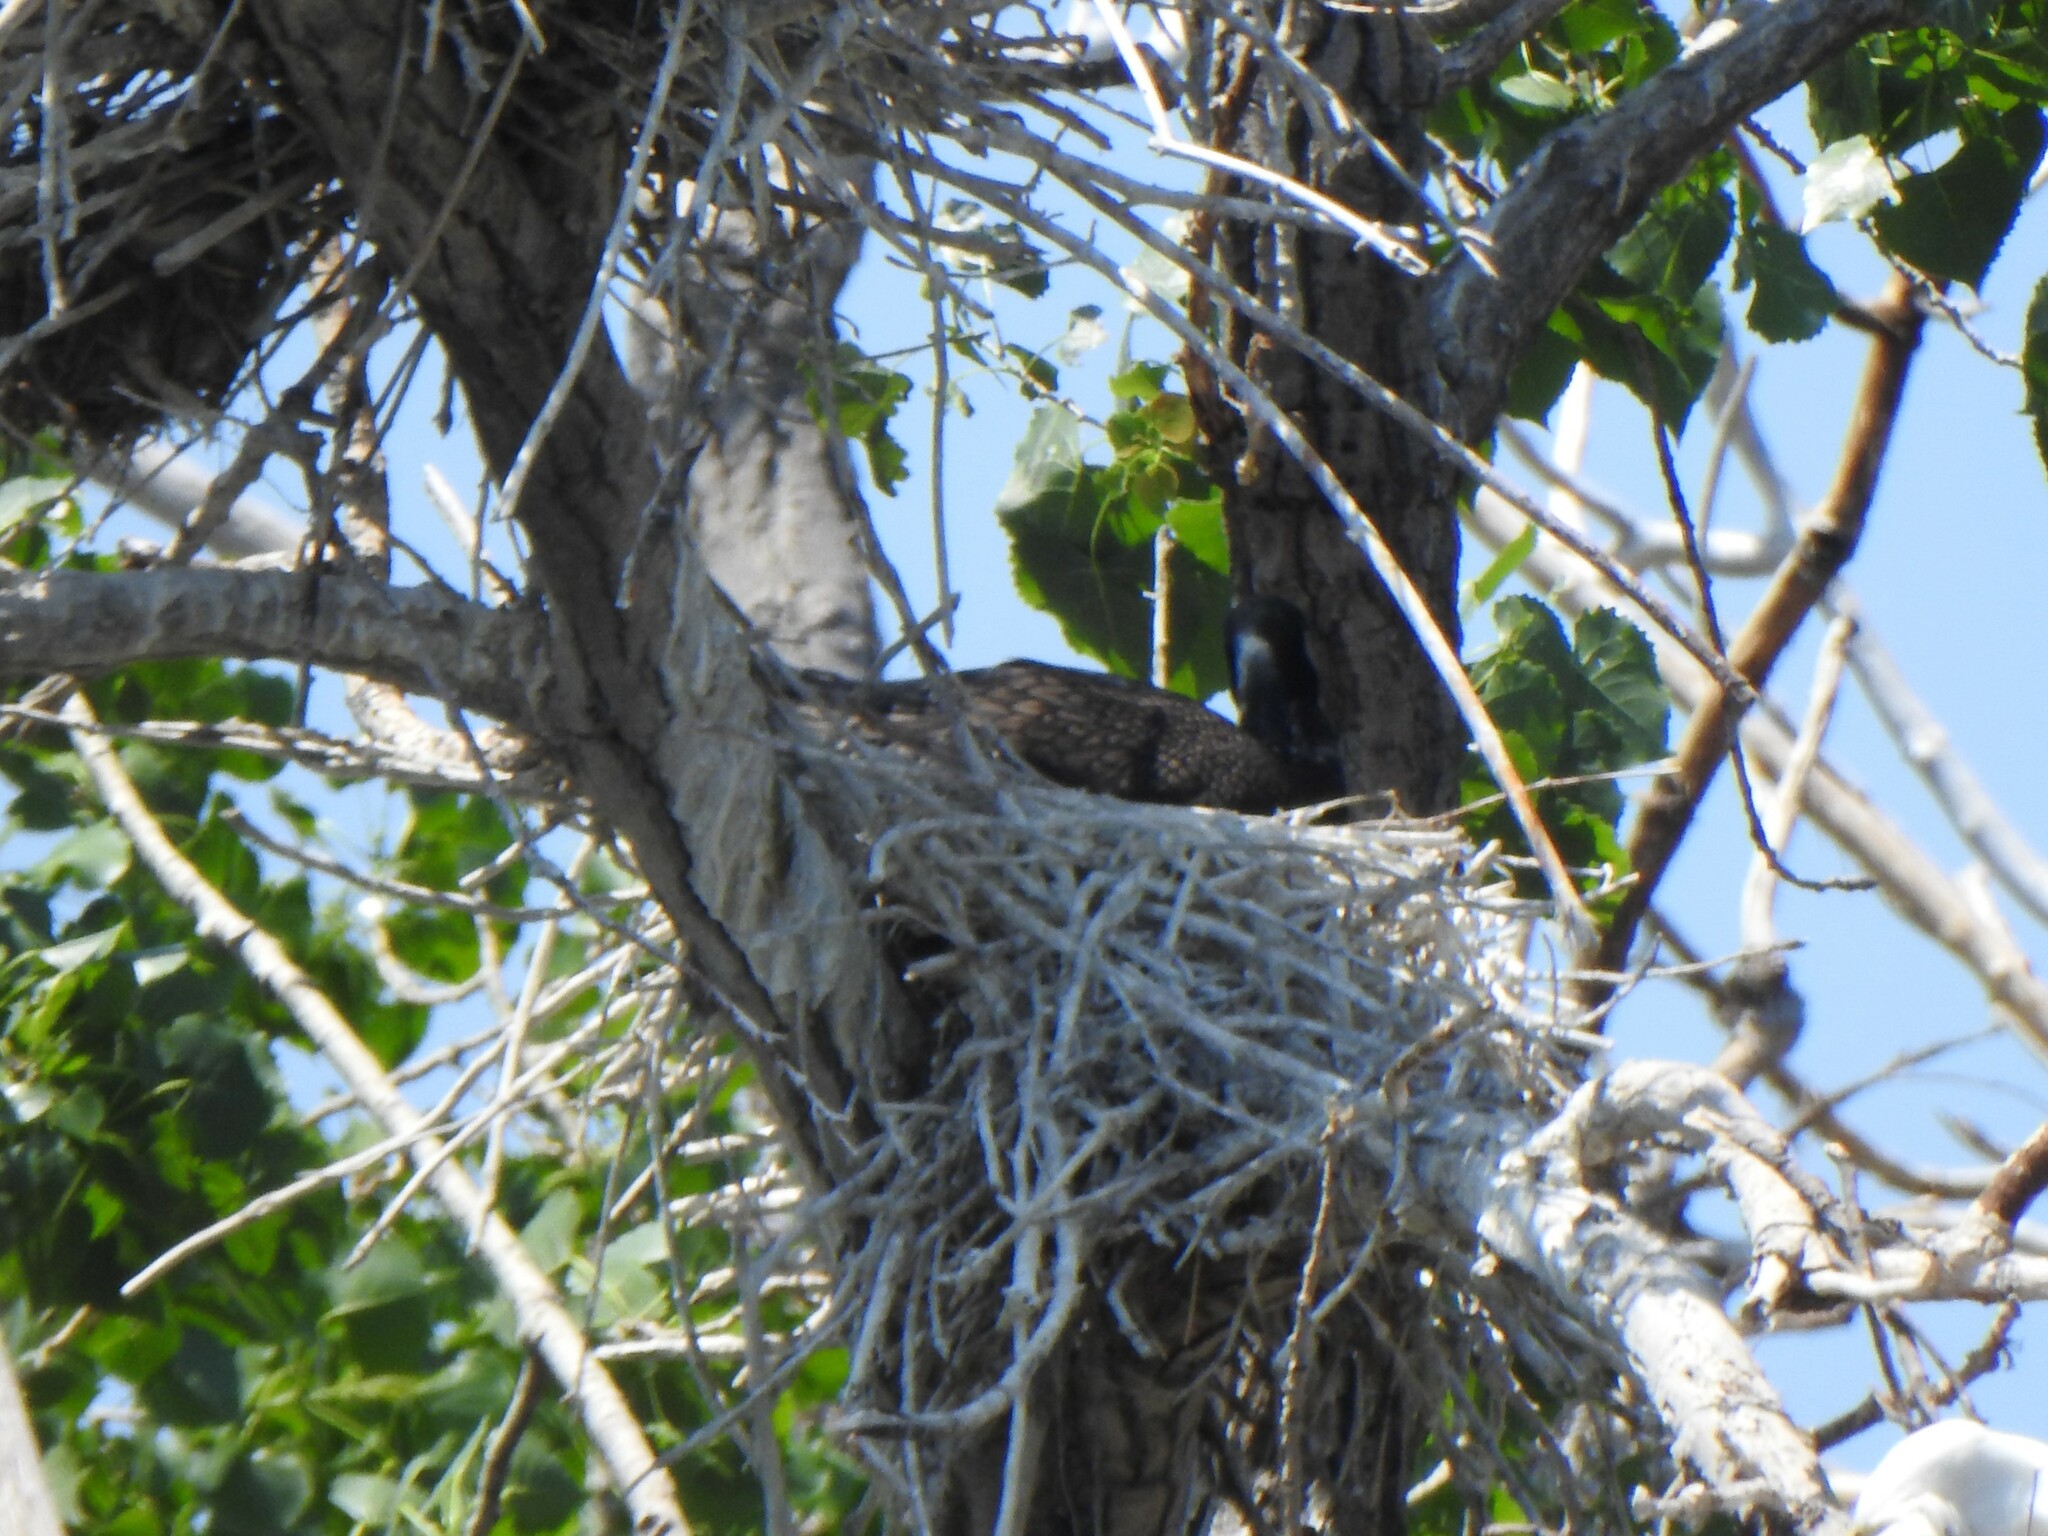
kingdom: Animalia
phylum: Chordata
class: Aves
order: Suliformes
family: Phalacrocoracidae
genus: Phalacrocorax
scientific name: Phalacrocorax auritus
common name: Double-crested cormorant
